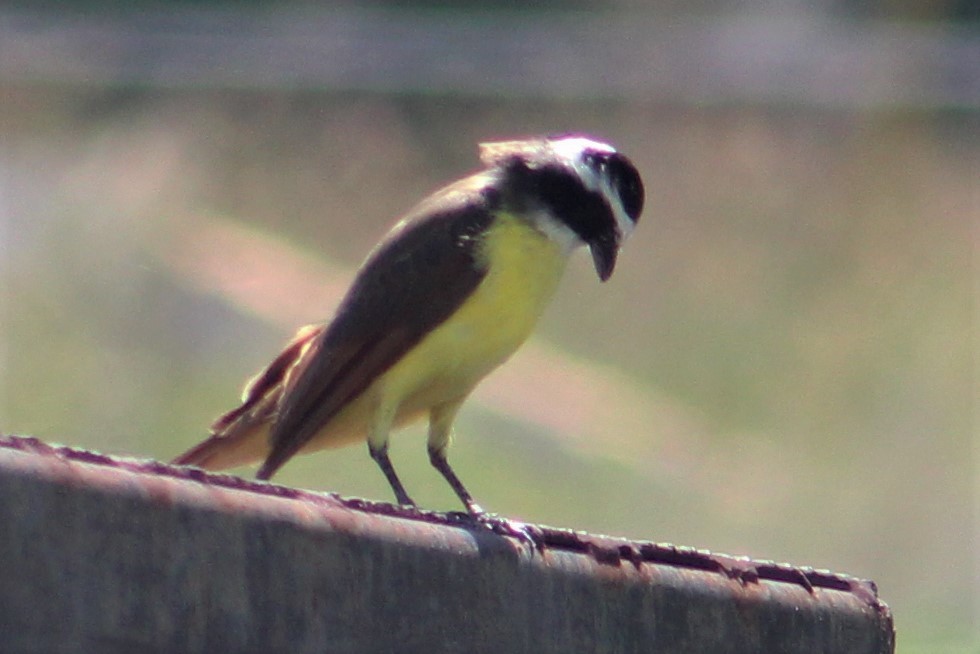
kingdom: Animalia
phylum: Chordata
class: Aves
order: Passeriformes
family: Tyrannidae
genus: Pitangus
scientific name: Pitangus sulphuratus
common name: Great kiskadee
